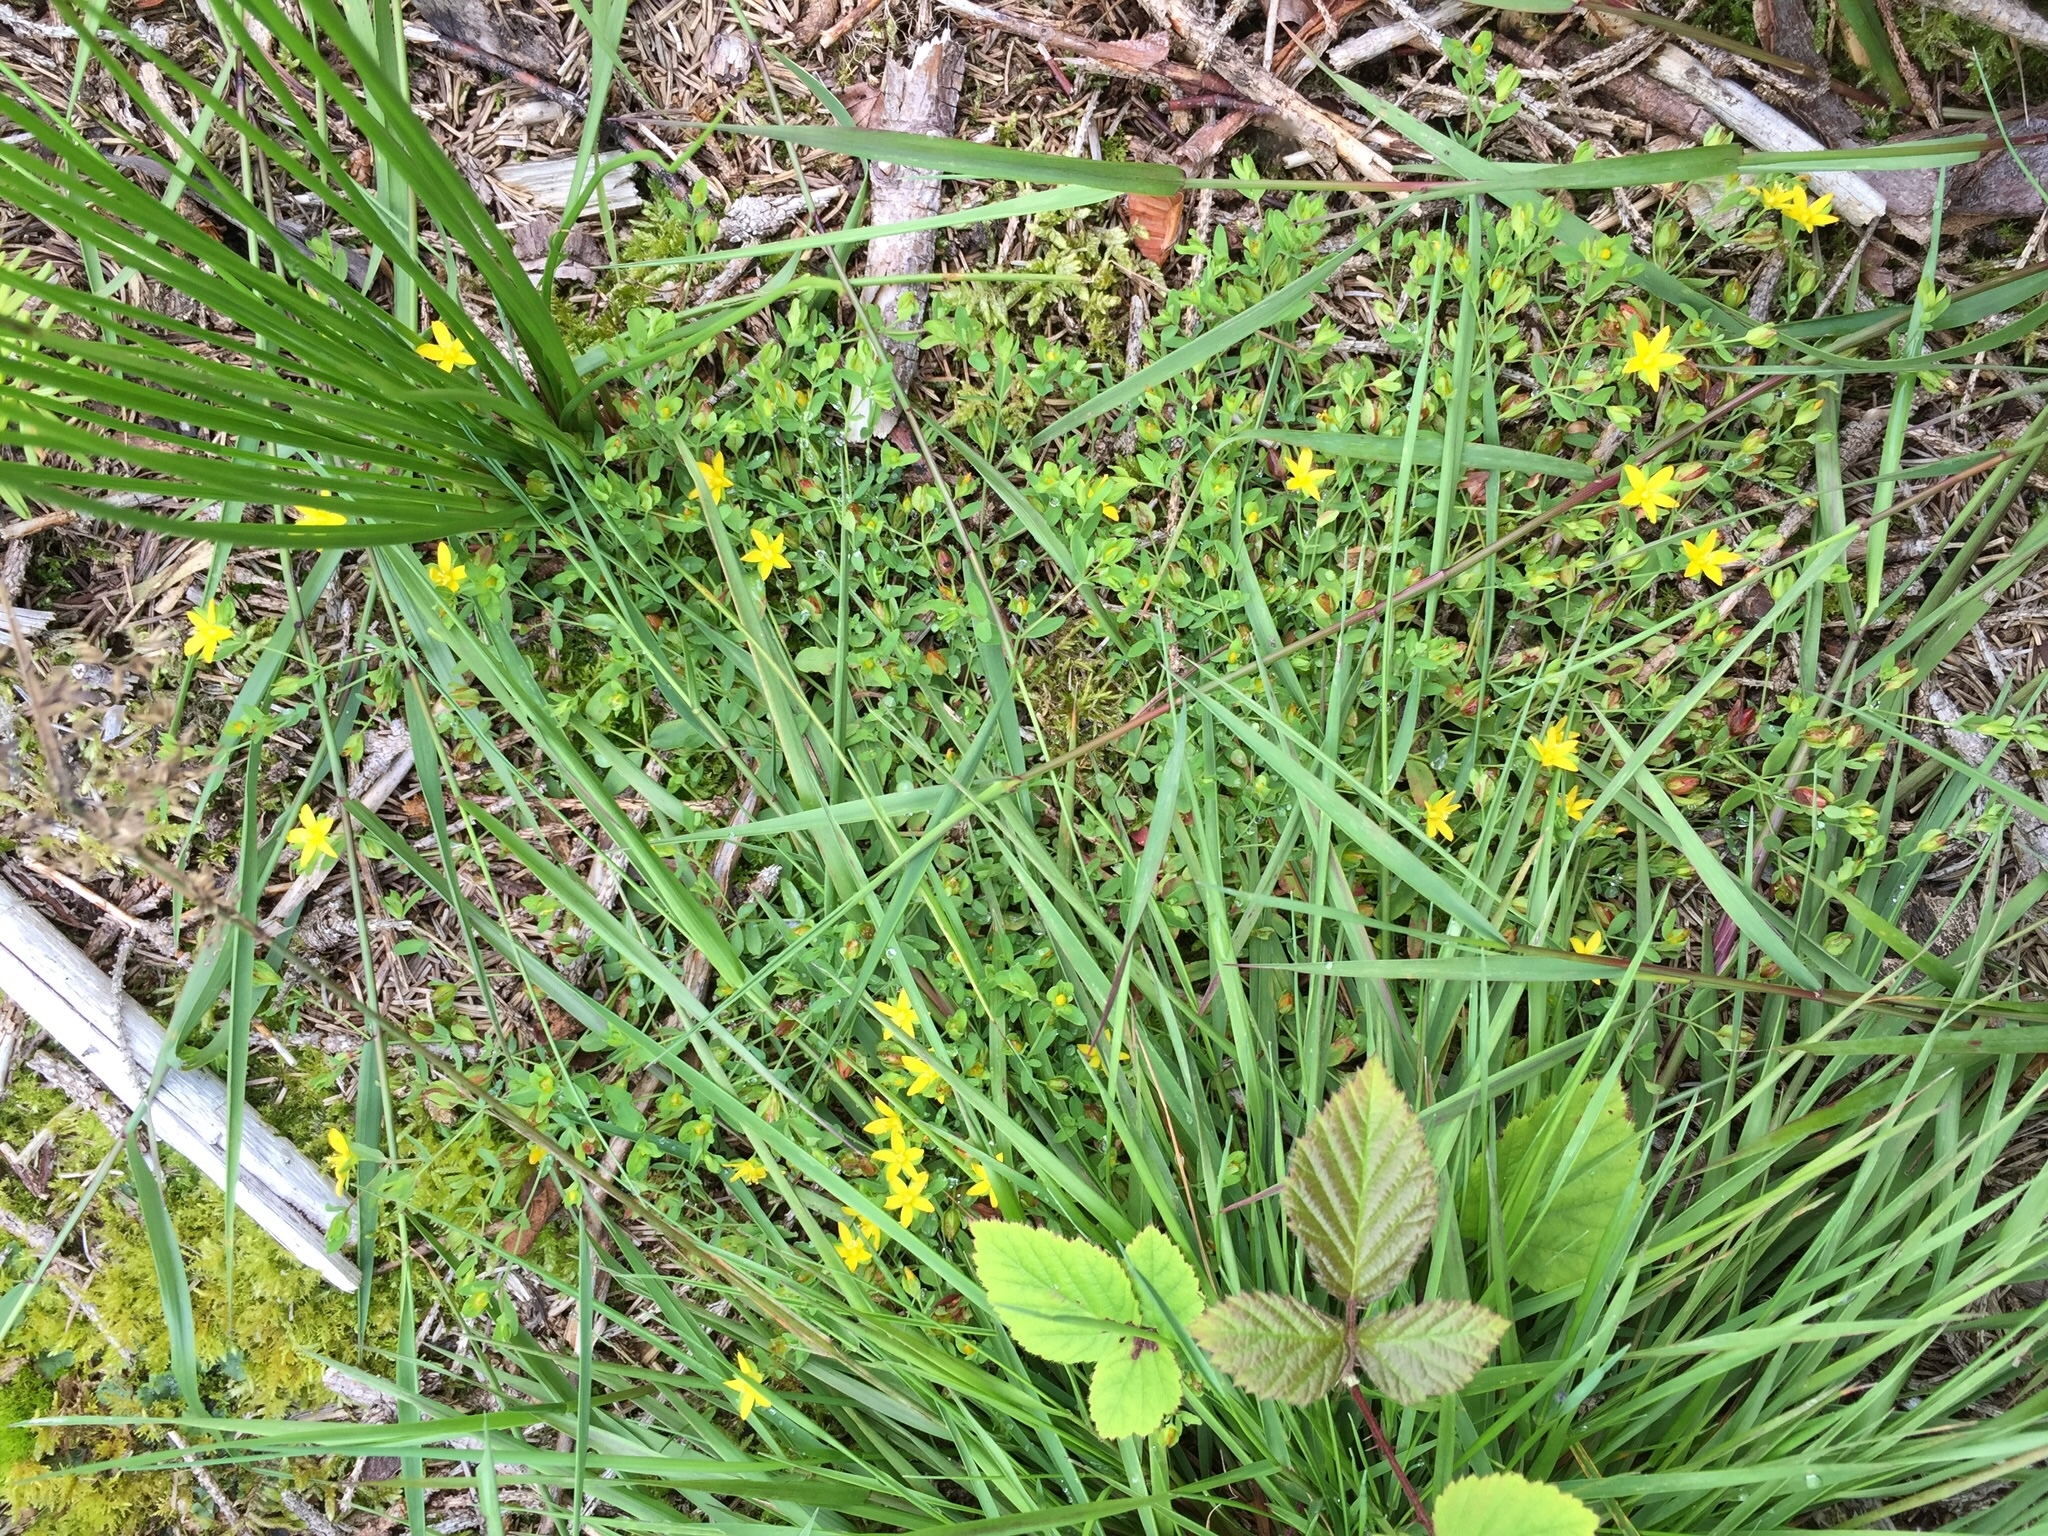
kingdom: Plantae
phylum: Tracheophyta
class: Magnoliopsida
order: Malpighiales
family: Hypericaceae
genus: Hypericum
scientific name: Hypericum humifusum
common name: Trailing st. john's-wort
